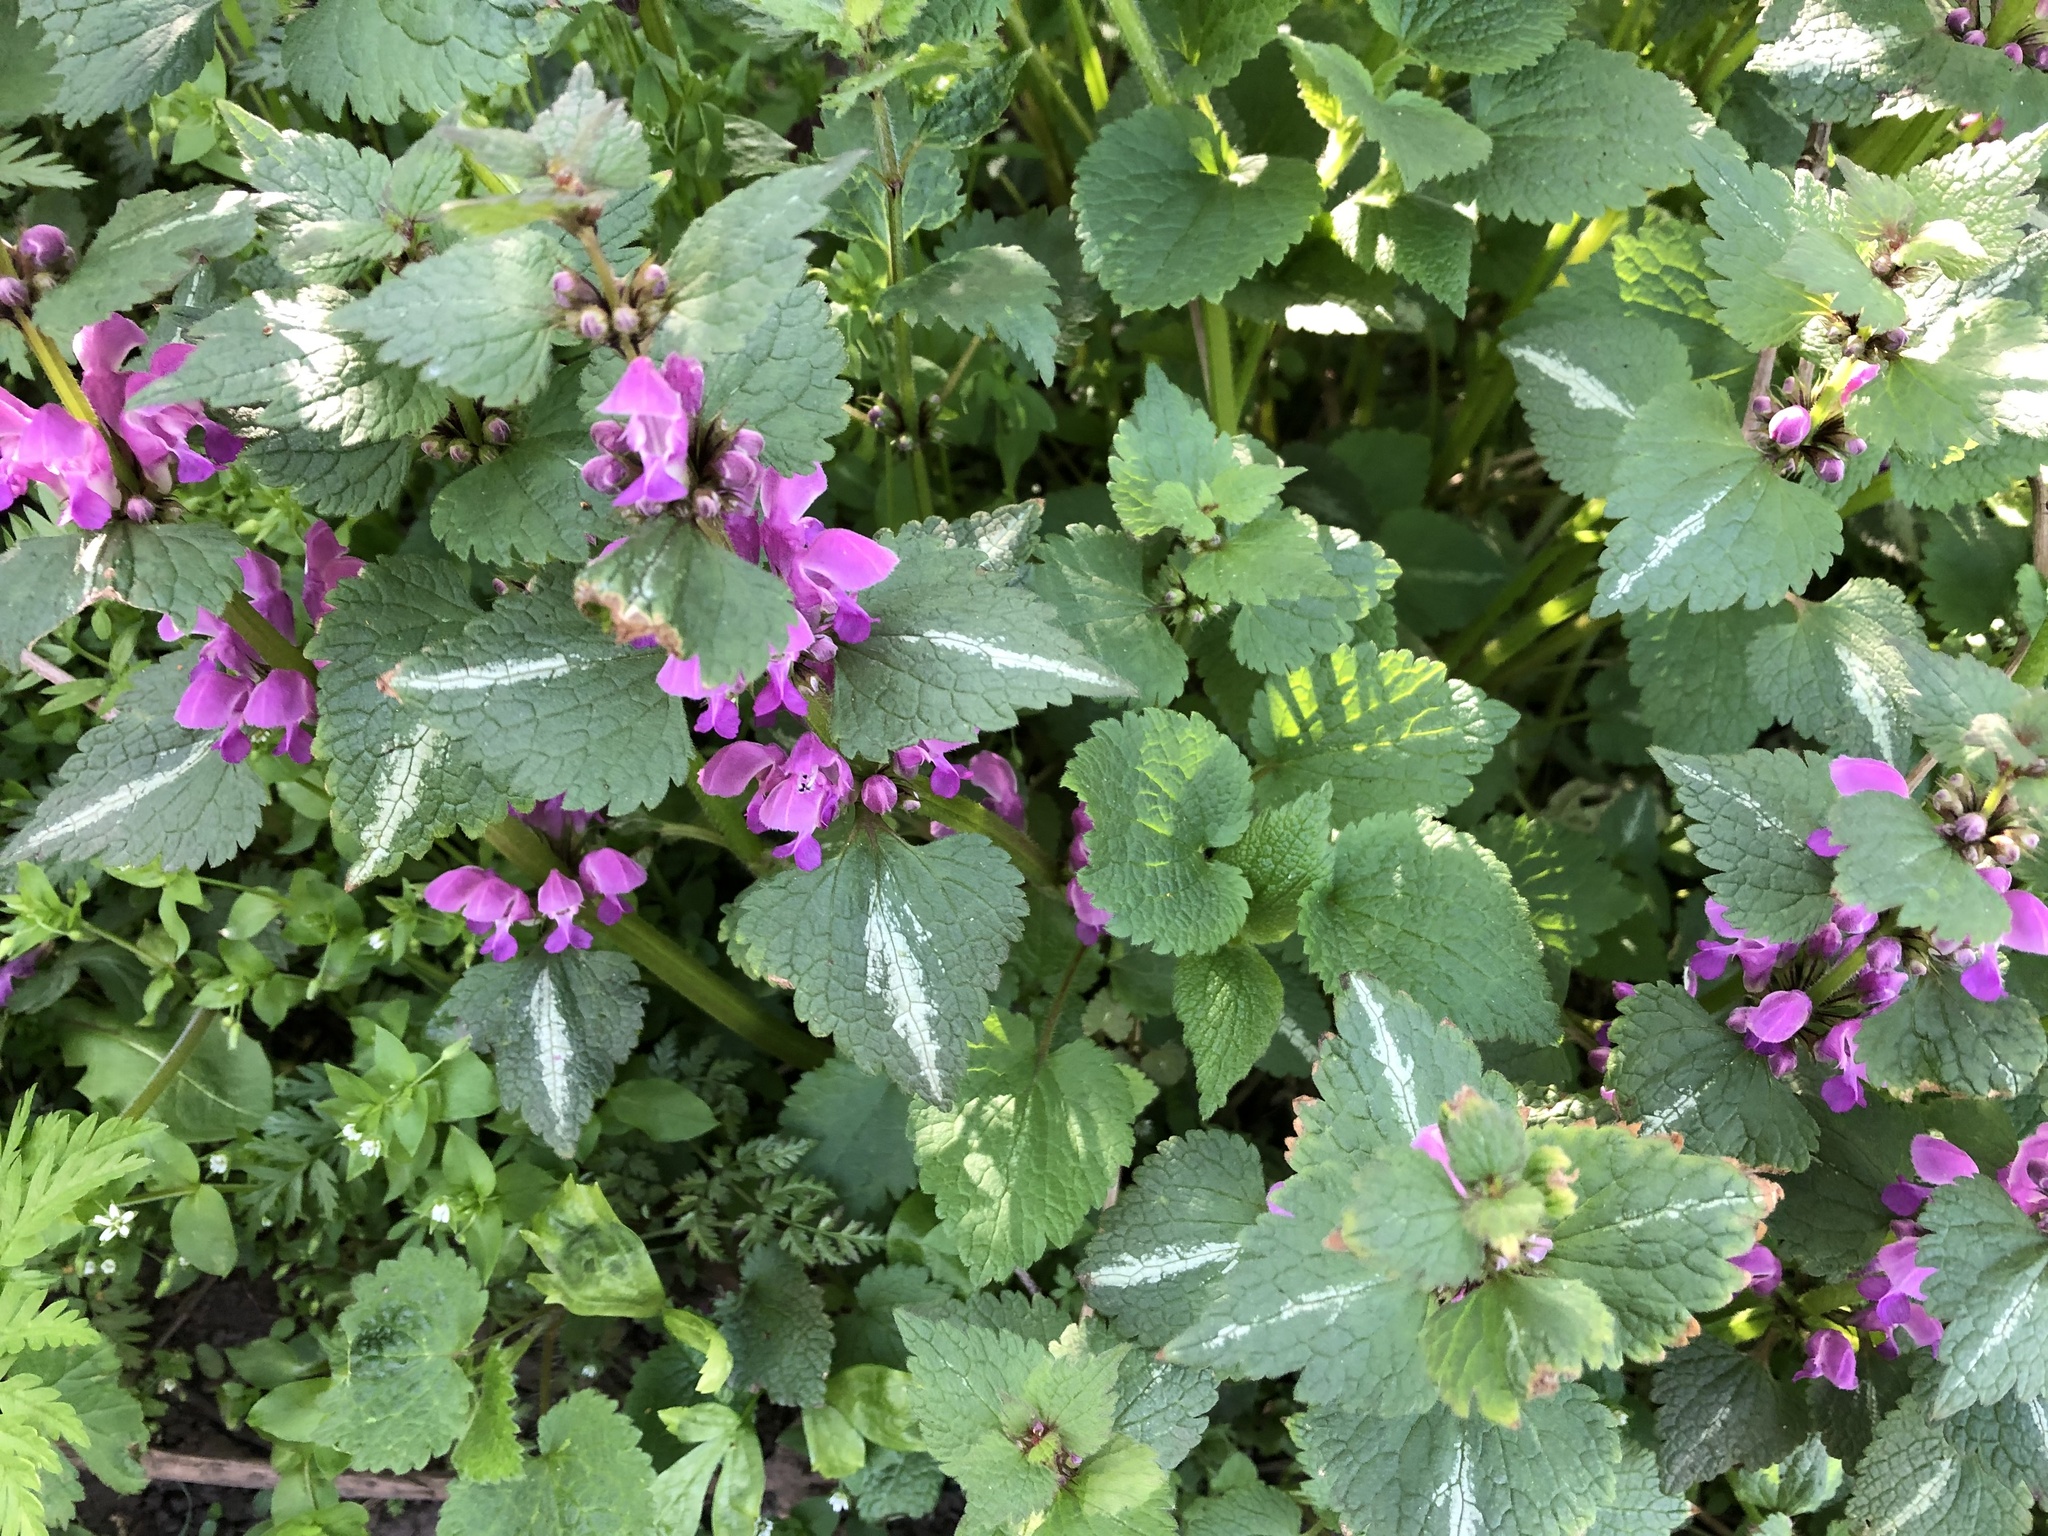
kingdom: Plantae
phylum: Tracheophyta
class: Magnoliopsida
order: Lamiales
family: Lamiaceae
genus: Lamium
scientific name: Lamium maculatum
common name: Spotted dead-nettle
